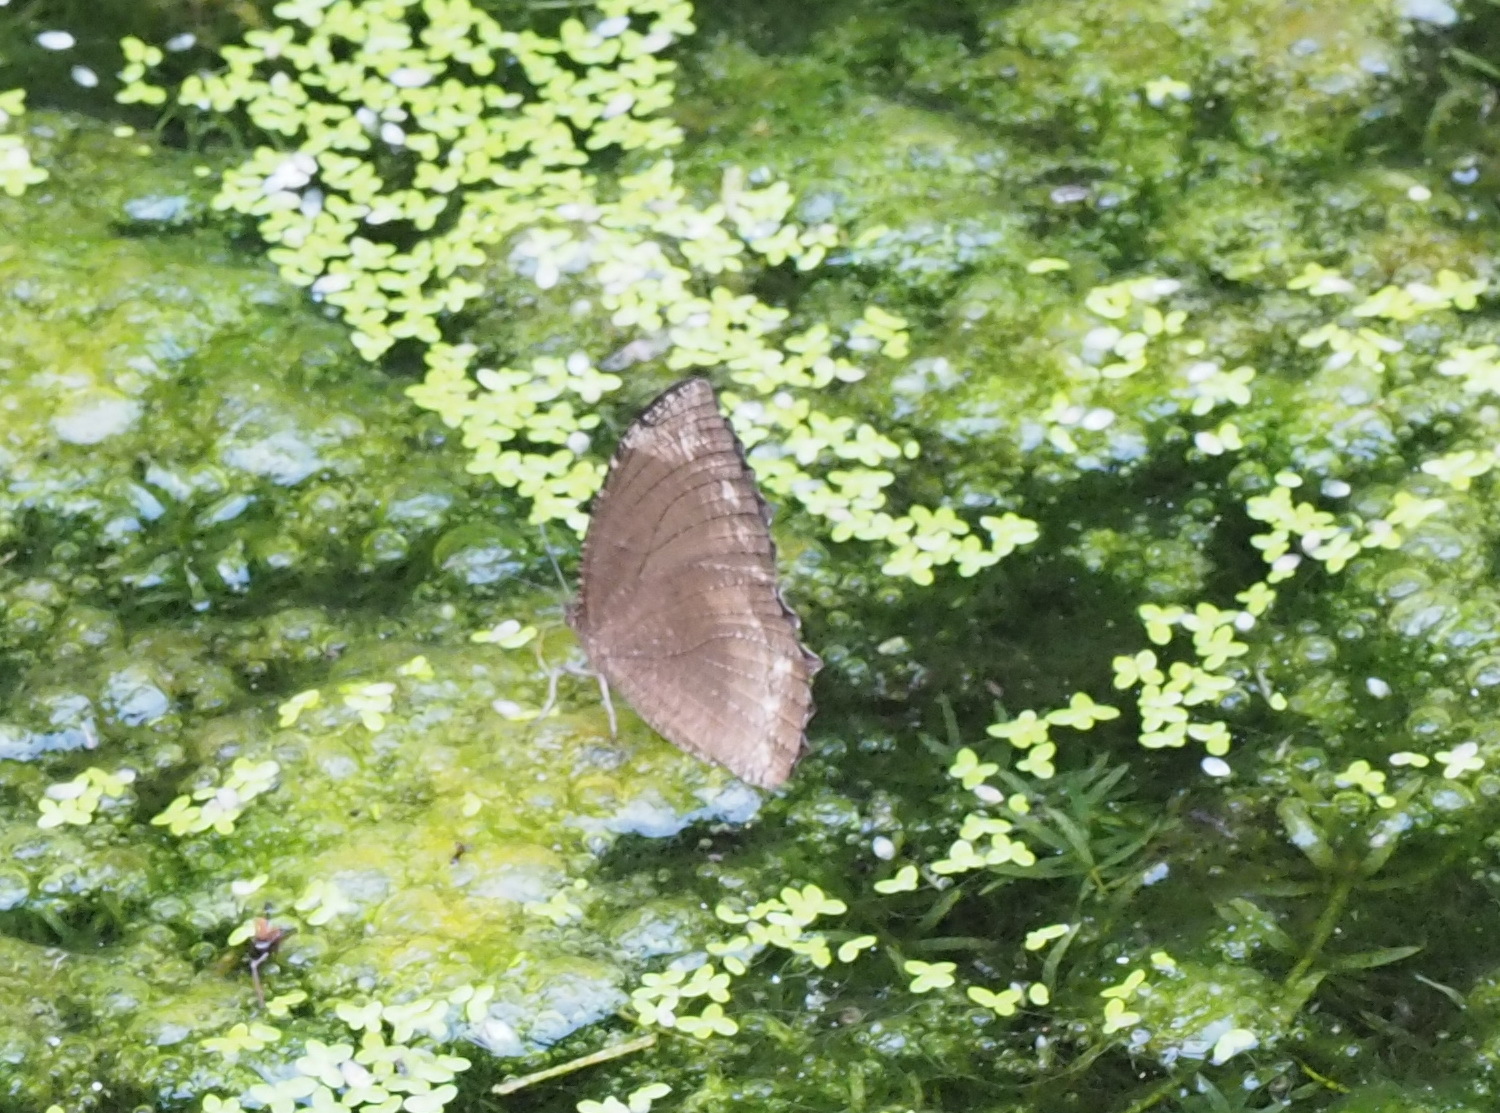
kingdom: Animalia
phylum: Arthropoda
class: Insecta
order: Lepidoptera
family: Nymphalidae
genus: Elymnias
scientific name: Elymnias hypermnestra
